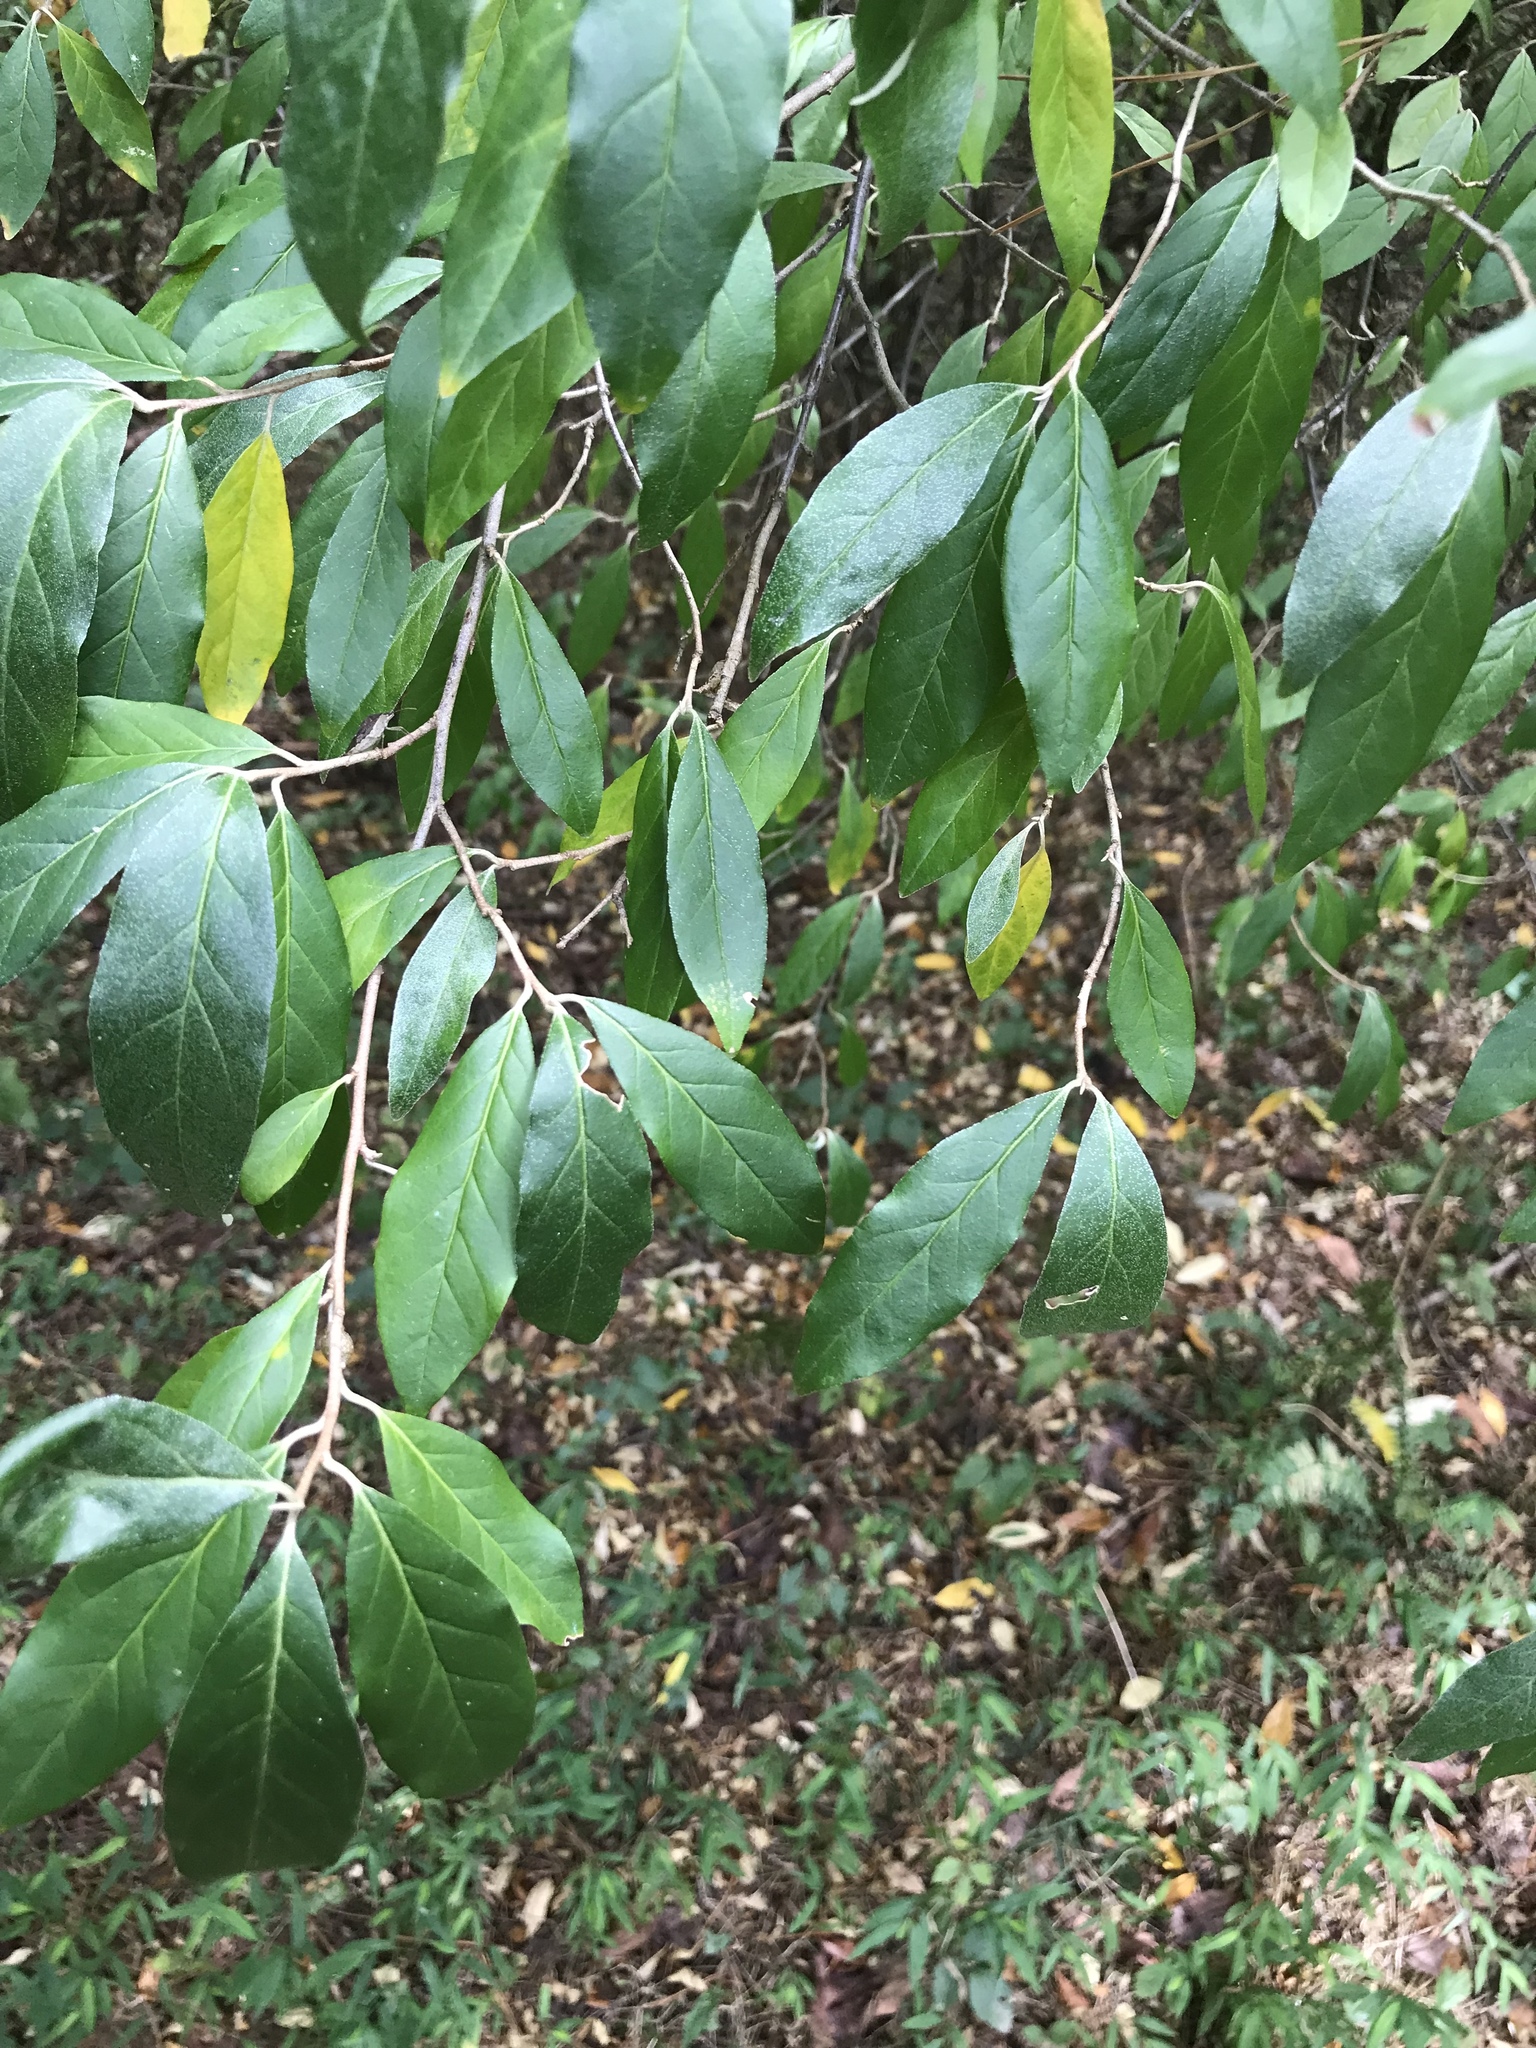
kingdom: Plantae
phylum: Tracheophyta
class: Magnoliopsida
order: Rosales
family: Elaeagnaceae
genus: Elaeagnus
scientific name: Elaeagnus umbellata
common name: Autumn olive
